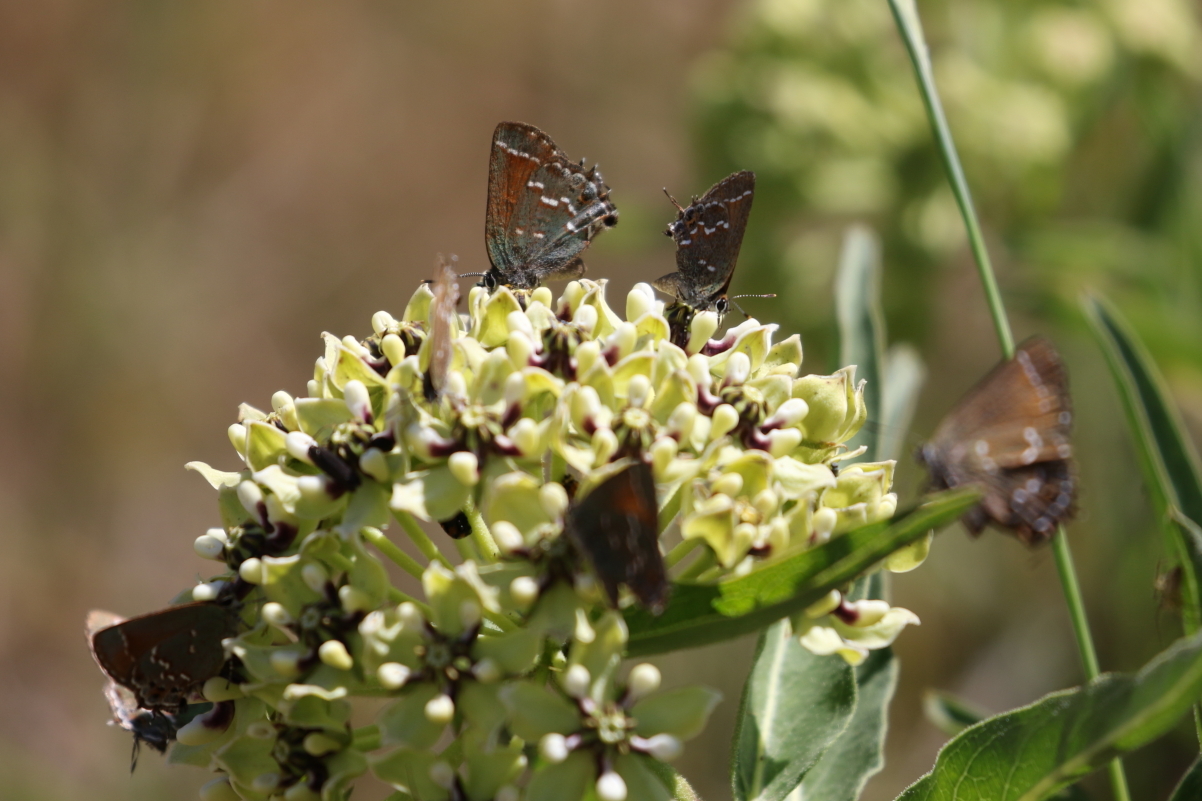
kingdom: Animalia
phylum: Arthropoda
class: Insecta
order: Lepidoptera
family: Lycaenidae
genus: Mitoura
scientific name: Mitoura gryneus
